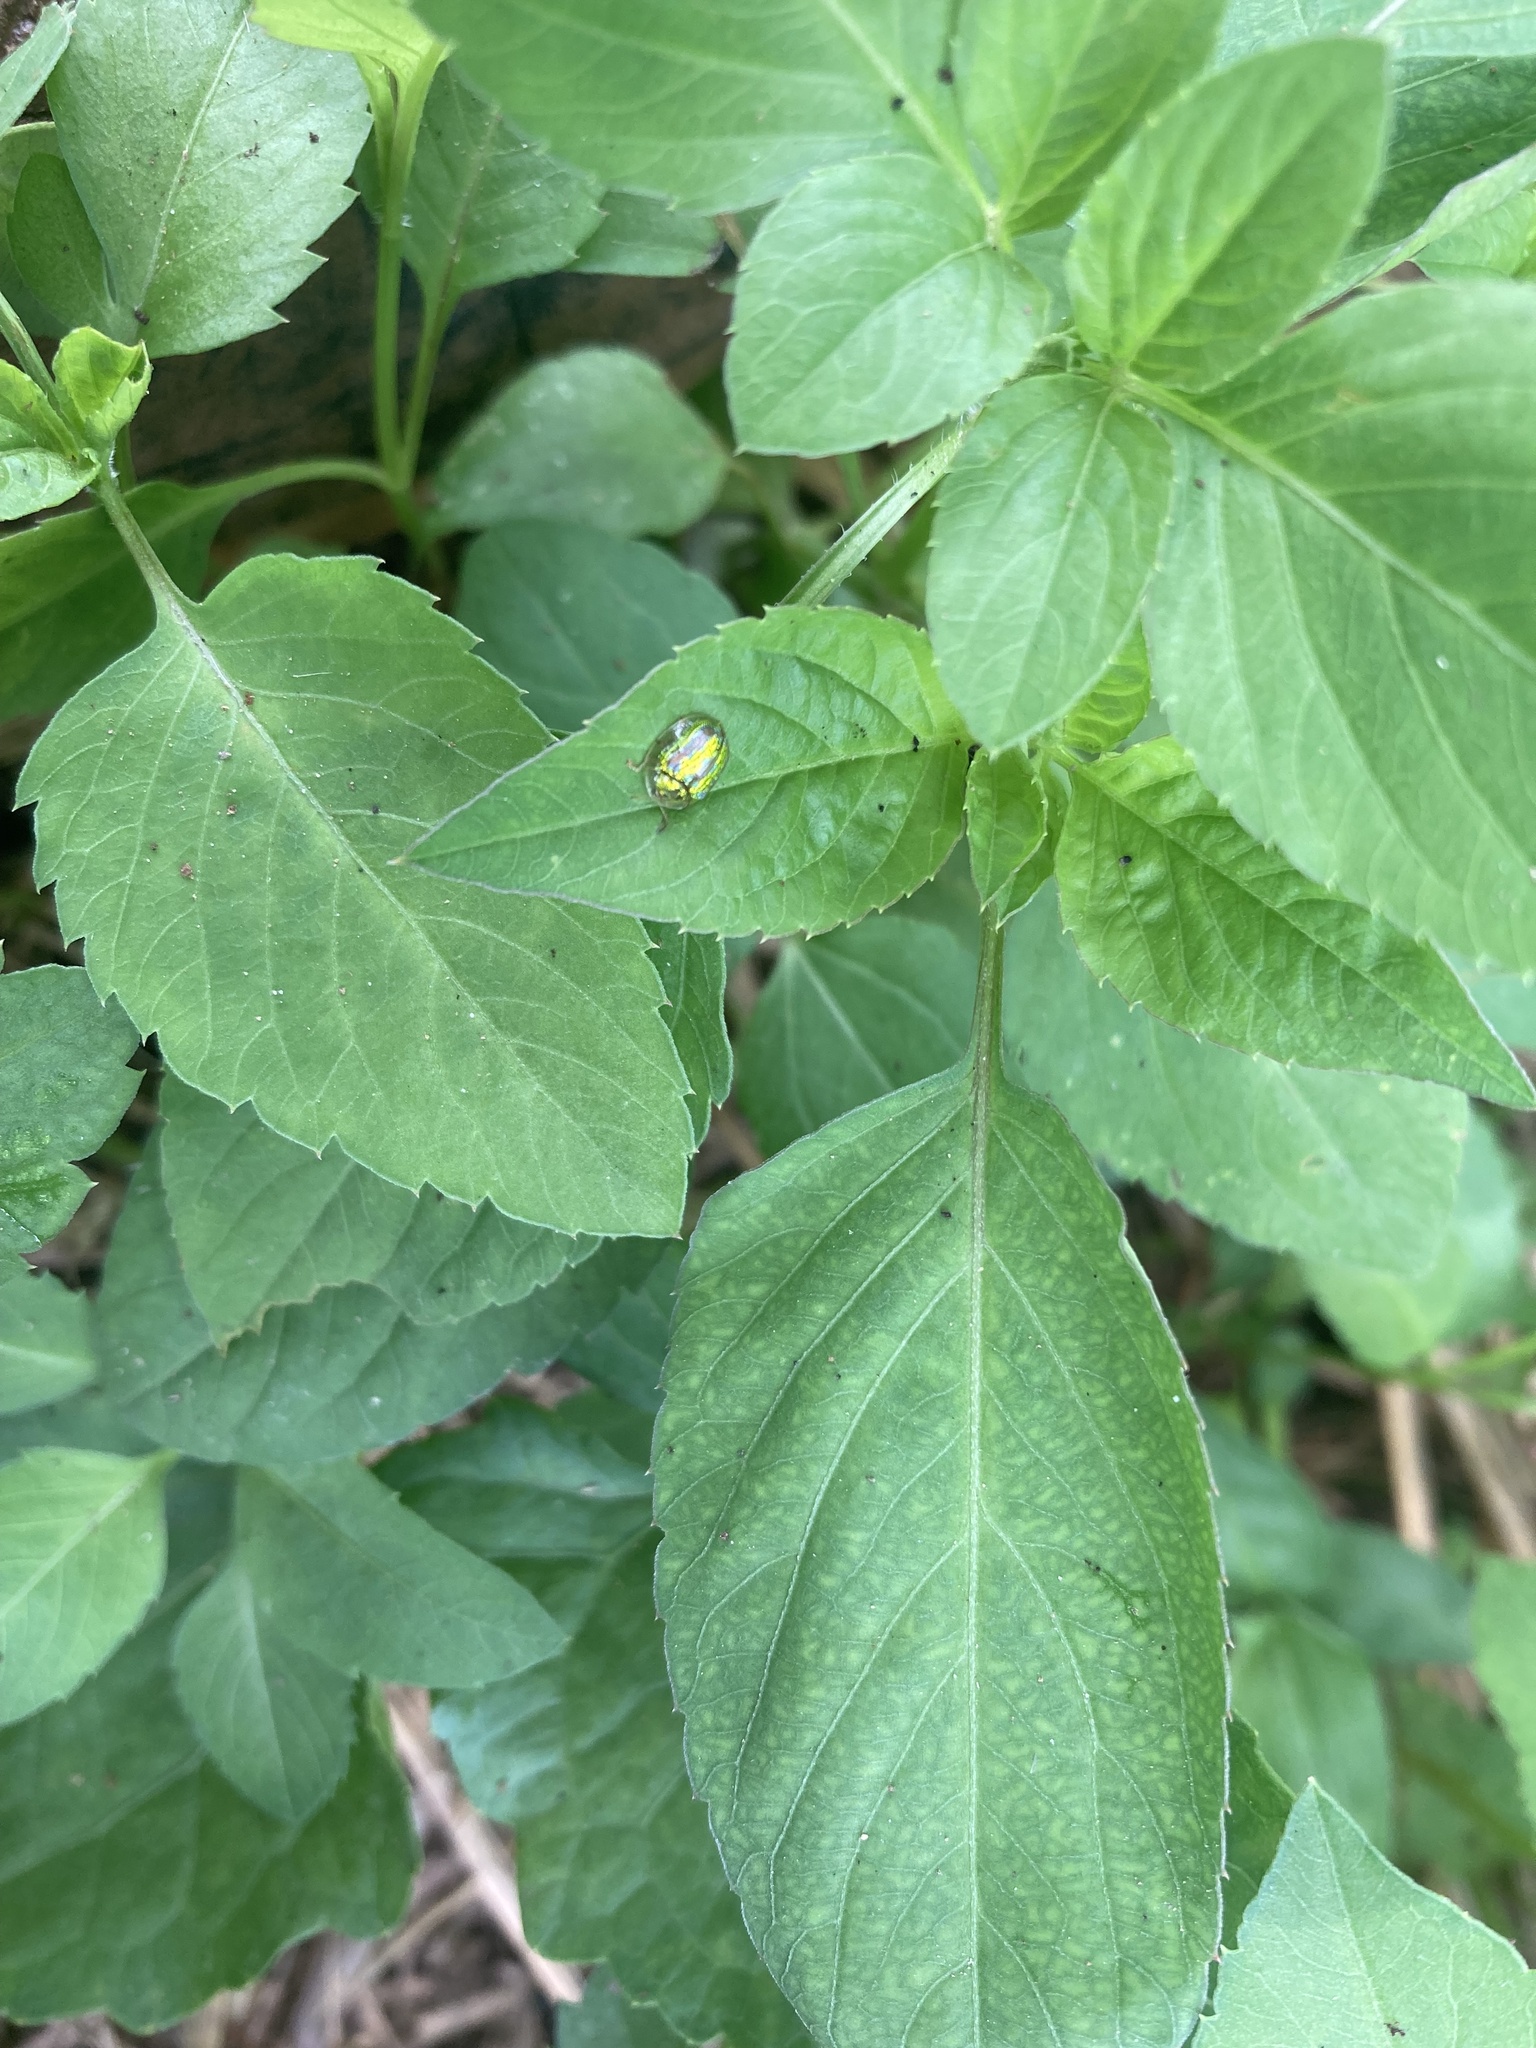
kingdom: Animalia
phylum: Arthropoda
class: Insecta
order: Coleoptera
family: Chrysomelidae
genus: Cassida
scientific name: Cassida circumdata
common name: Tortoise beetle
